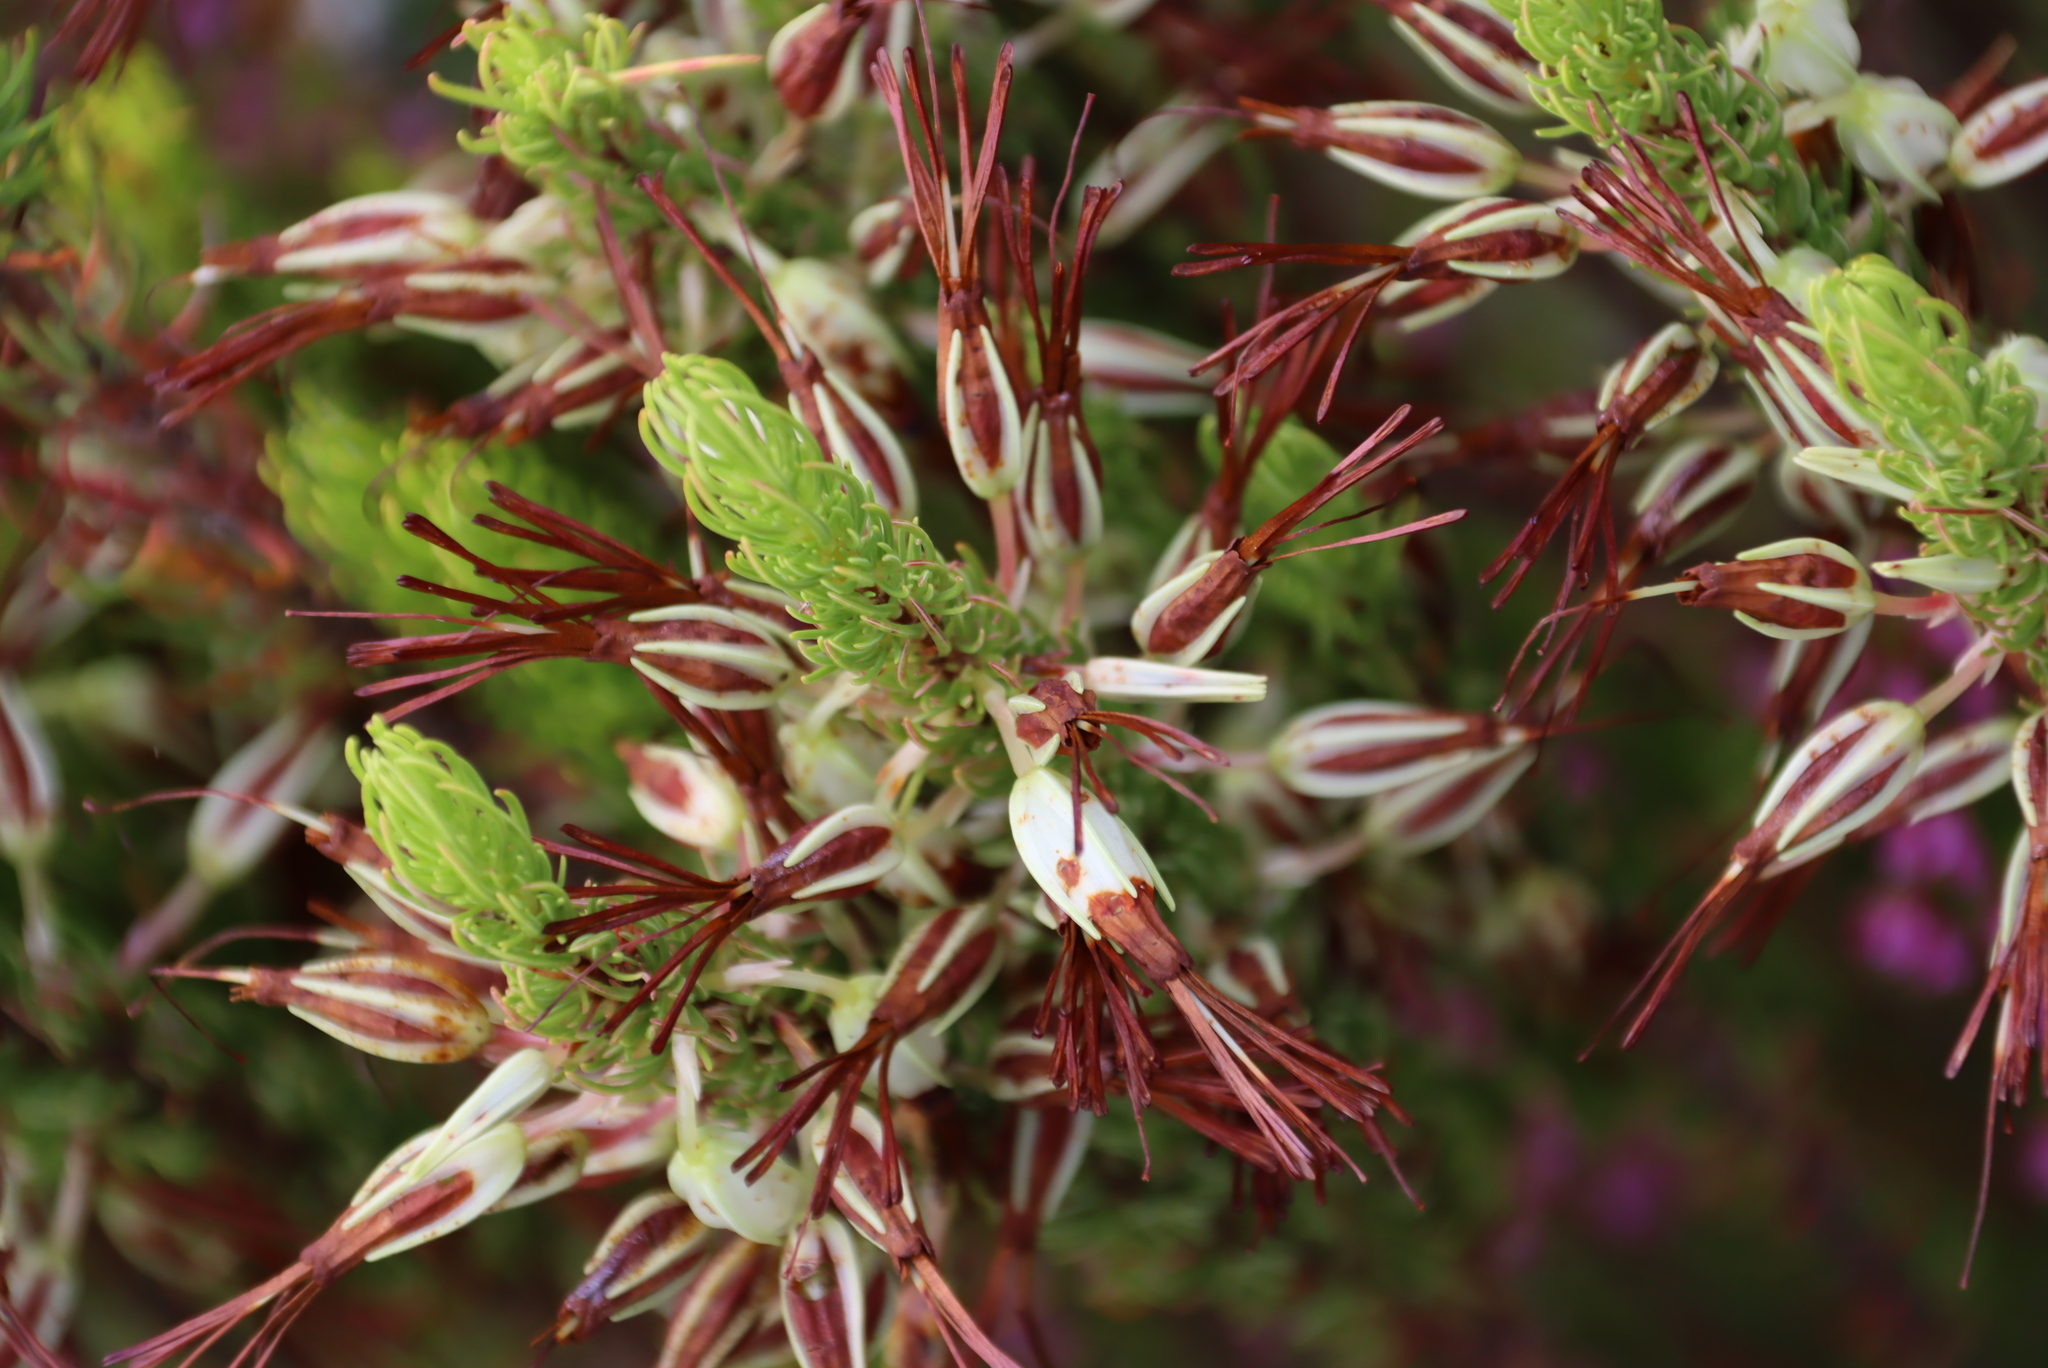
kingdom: Plantae
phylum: Tracheophyta
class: Magnoliopsida
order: Ericales
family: Ericaceae
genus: Erica
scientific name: Erica plukenetii
